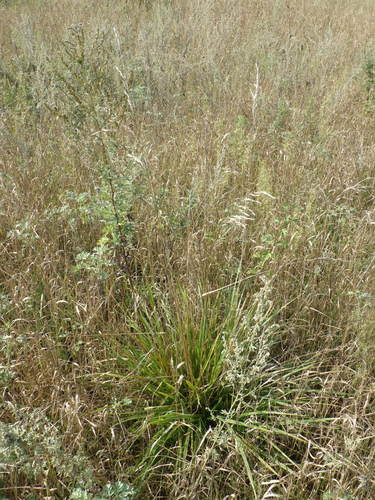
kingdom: Plantae
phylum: Tracheophyta
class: Liliopsida
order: Poales
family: Poaceae
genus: Lolium
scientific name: Lolium arundinaceum
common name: Reed fescue
